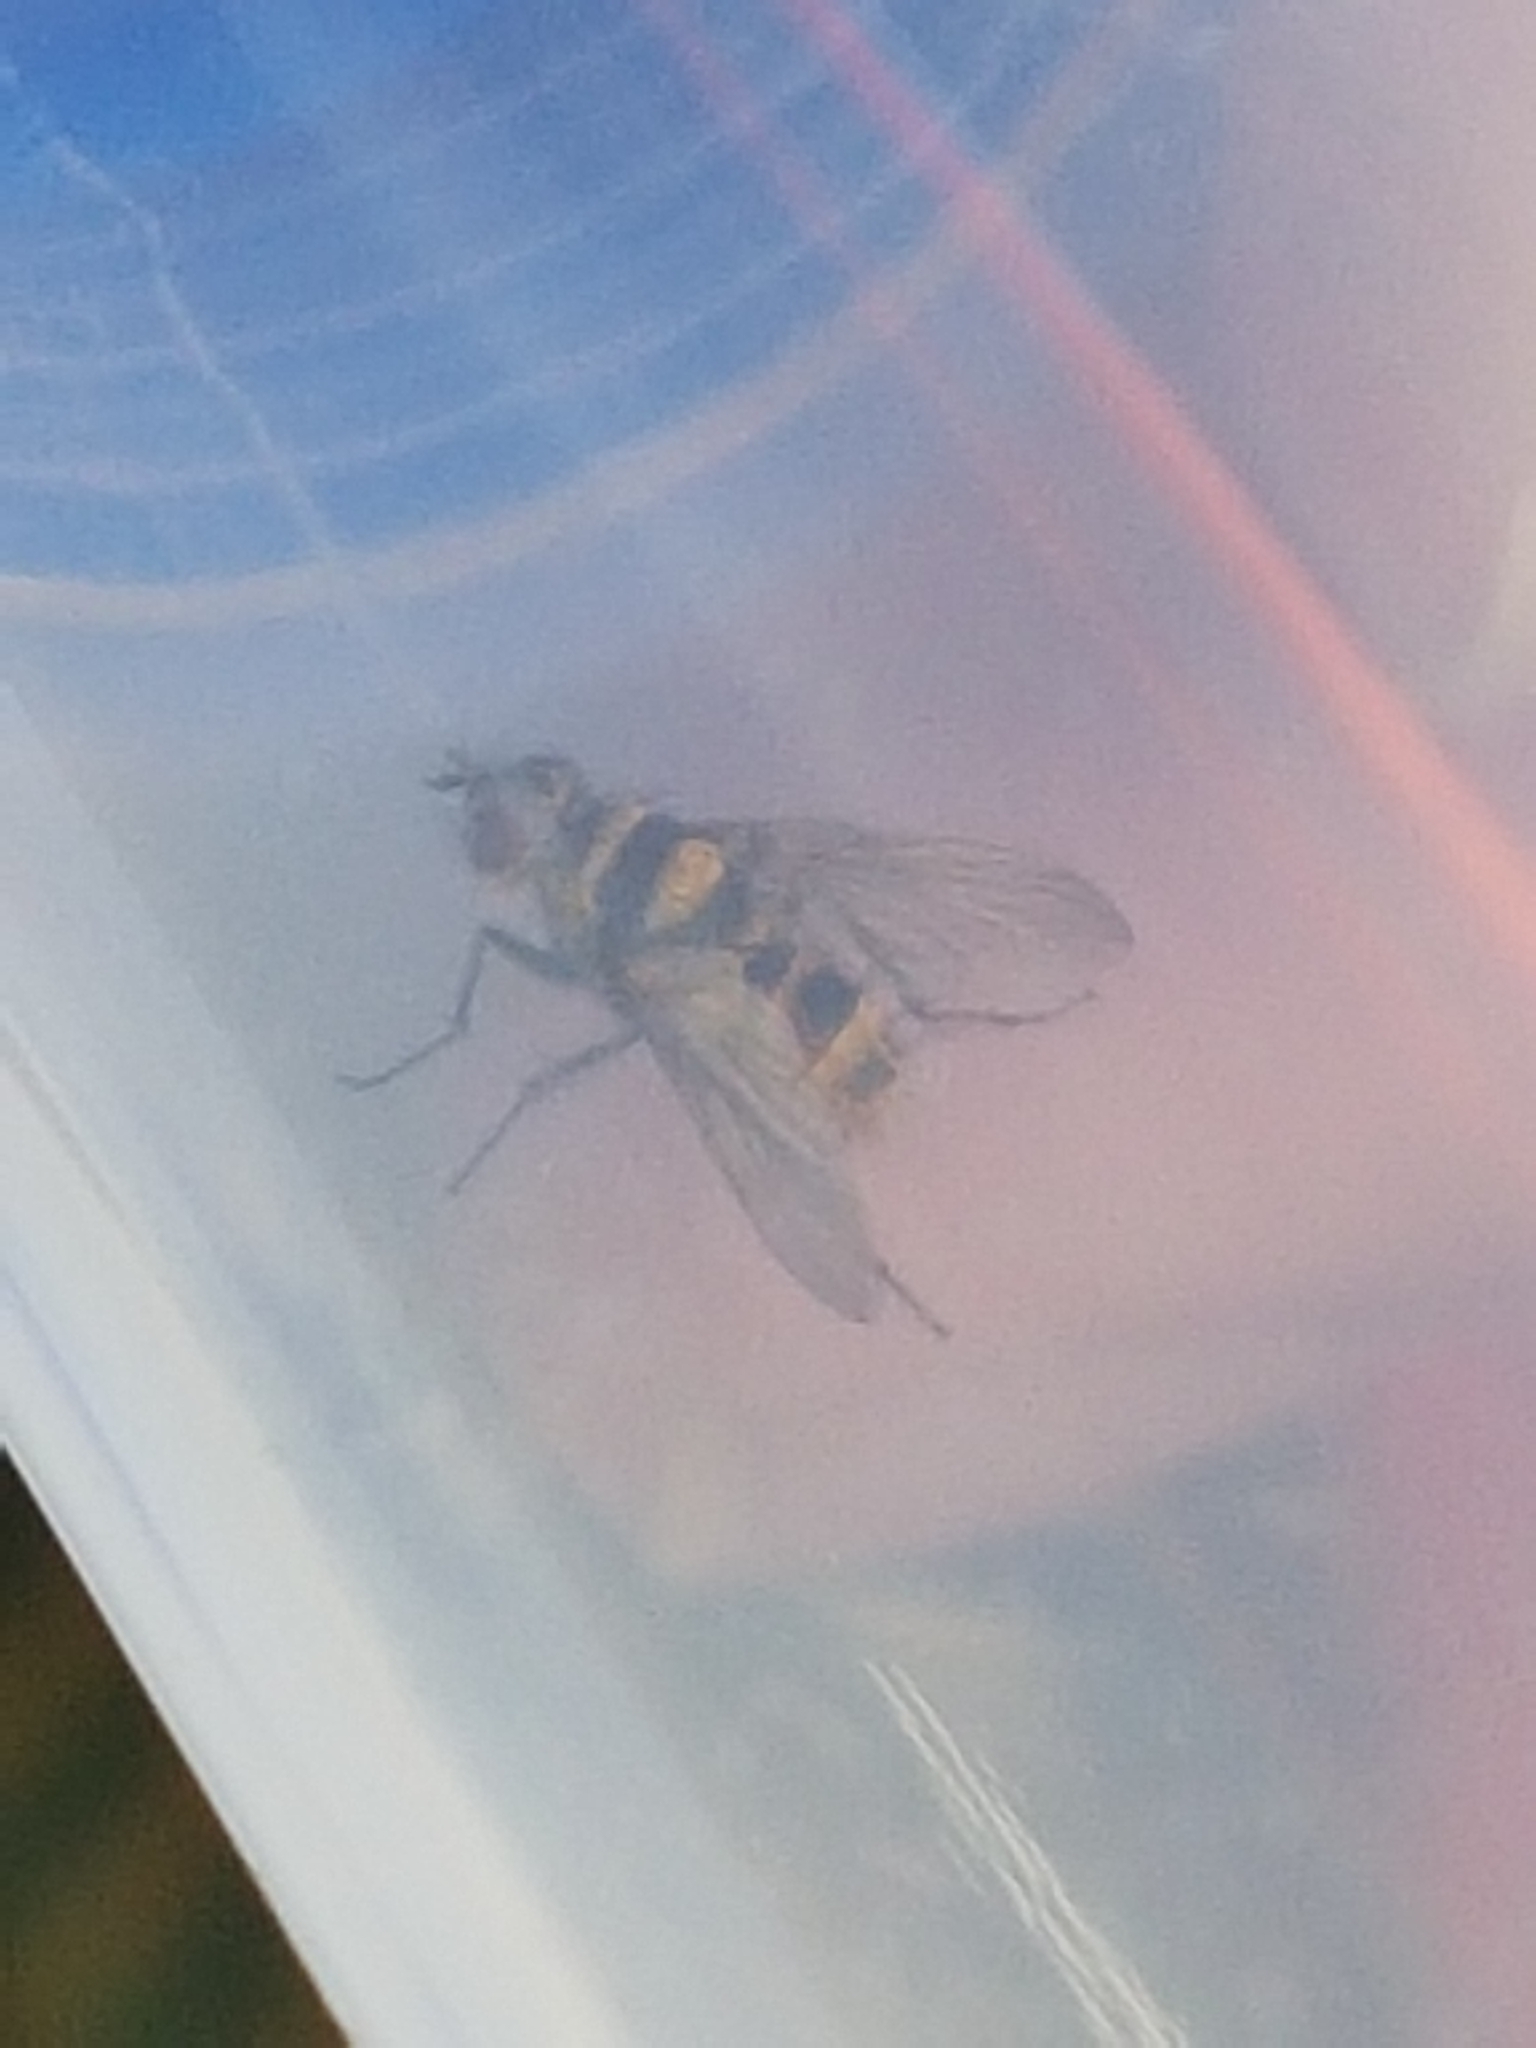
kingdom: Animalia
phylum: Arthropoda
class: Insecta
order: Diptera
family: Tachinidae
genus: Trigonospila
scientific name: Trigonospila brevifacies
